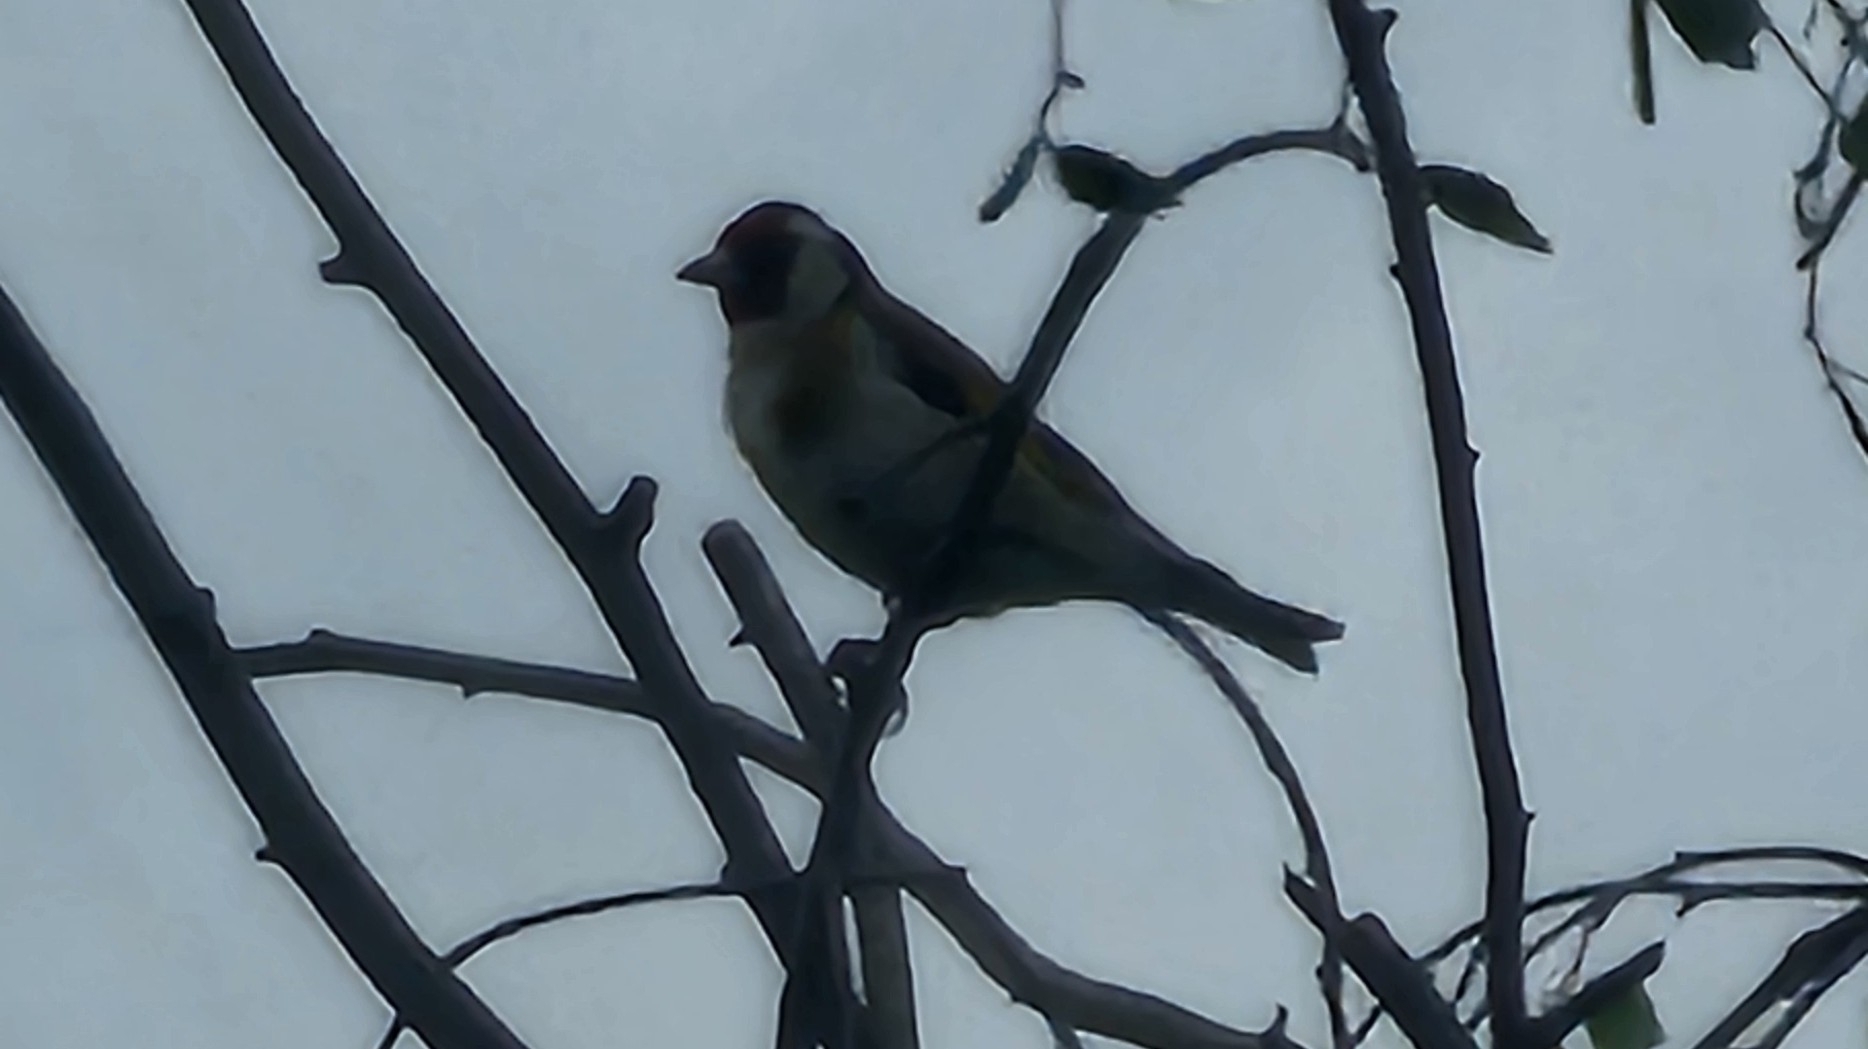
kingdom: Animalia
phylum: Chordata
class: Aves
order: Passeriformes
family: Fringillidae
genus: Carduelis
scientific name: Carduelis carduelis
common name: European goldfinch
